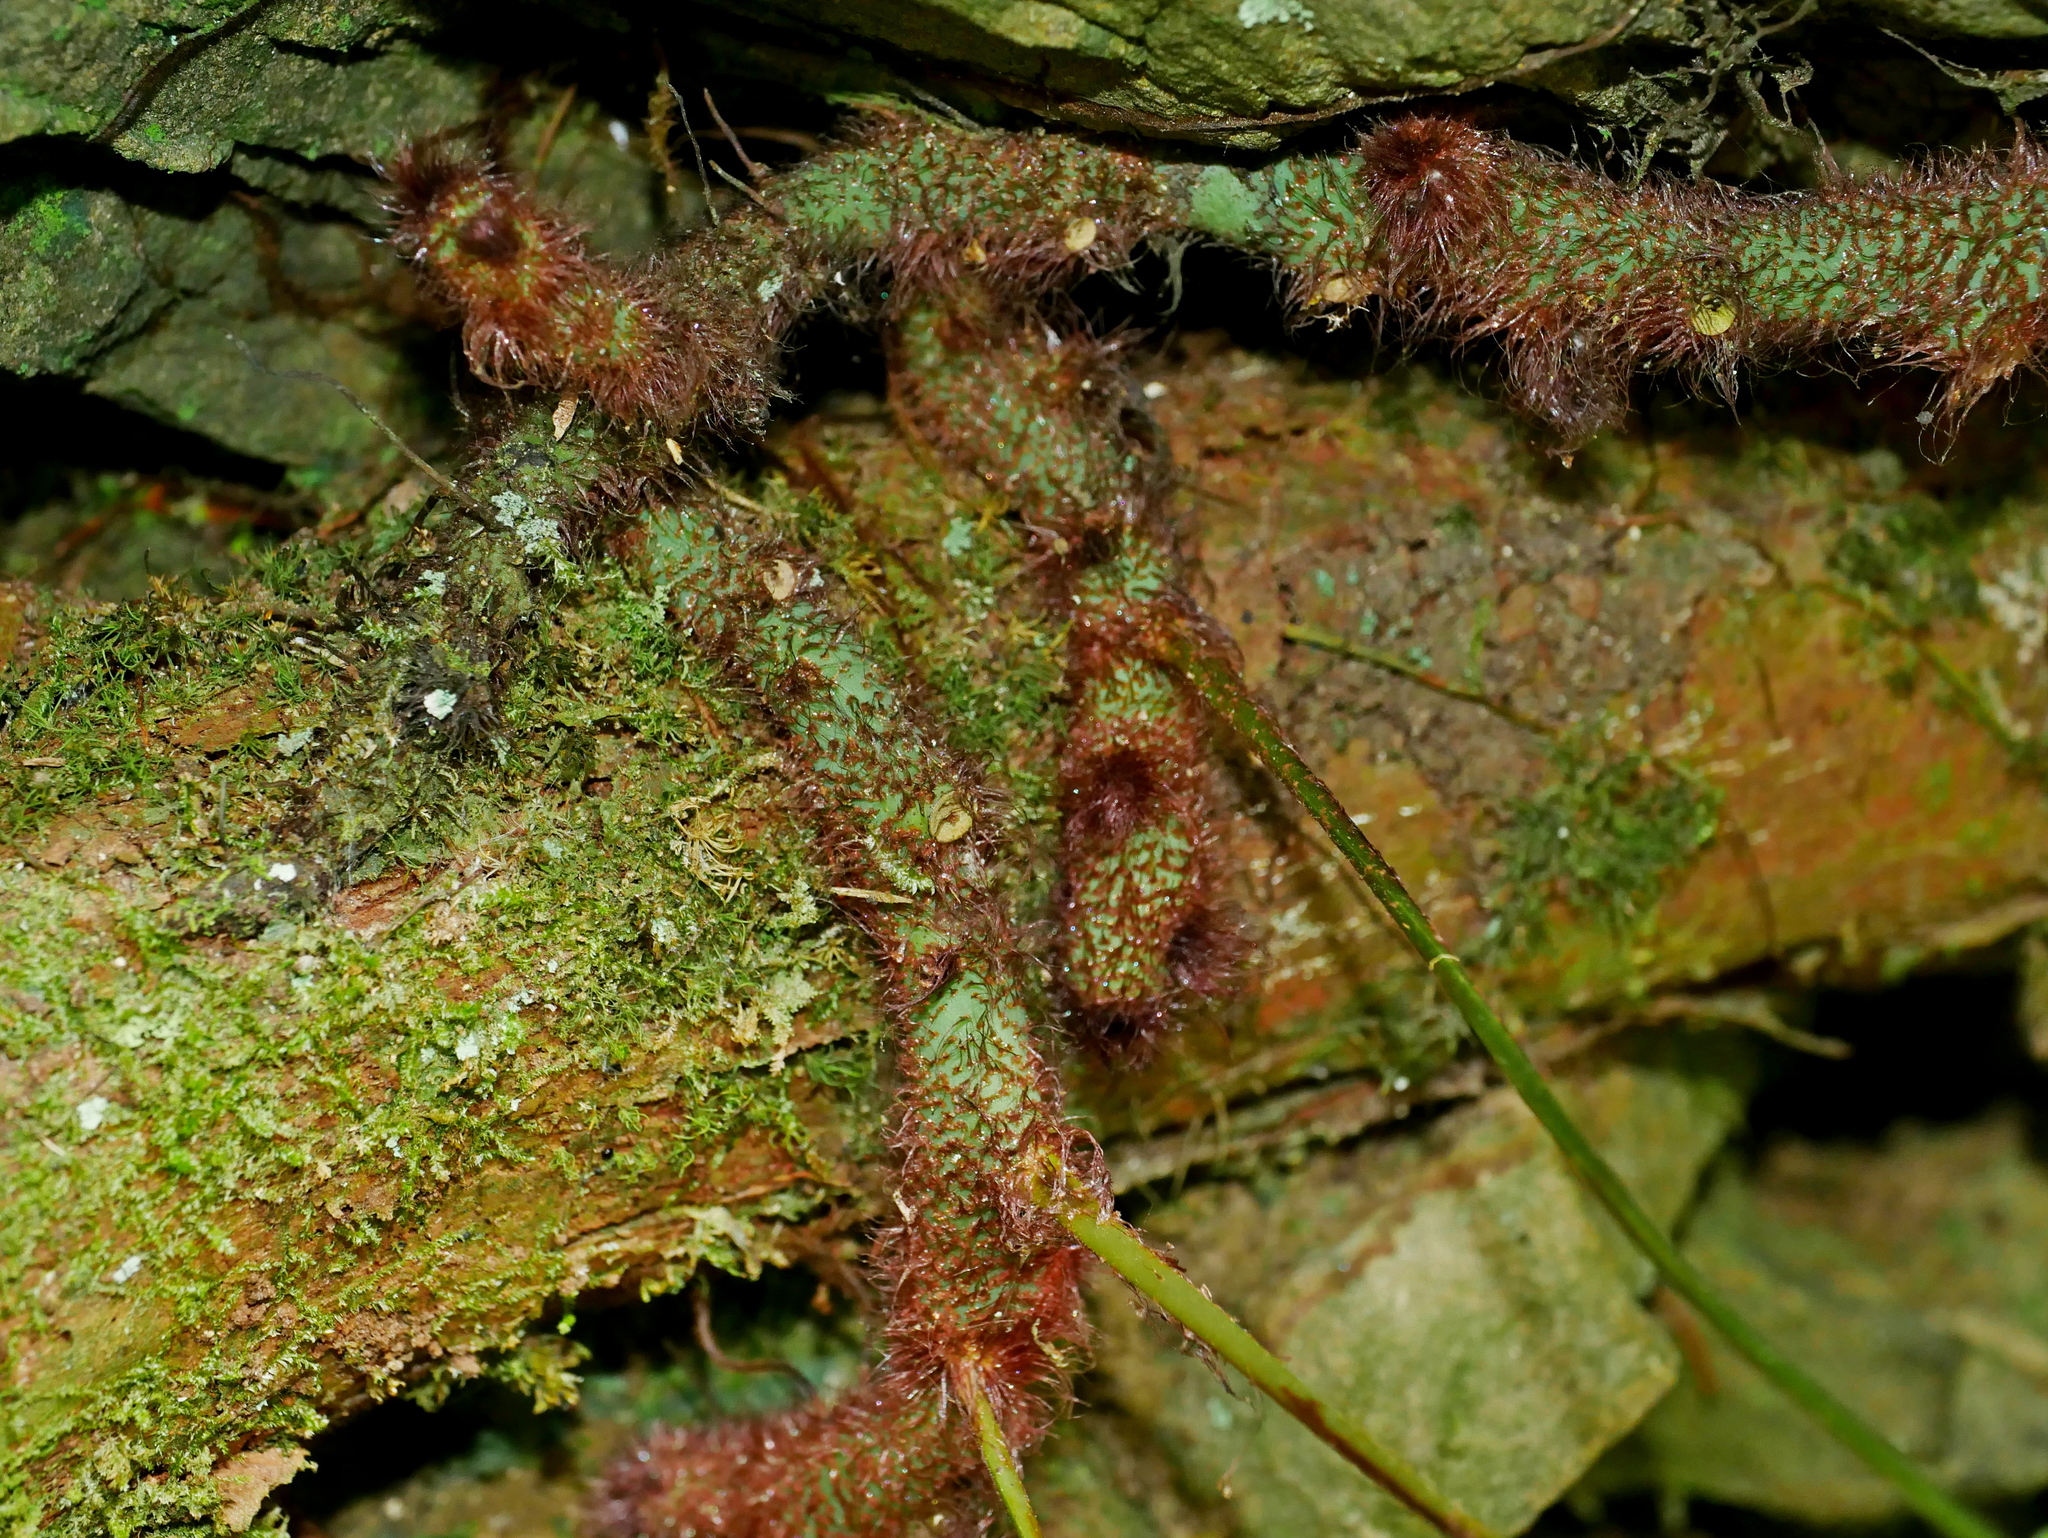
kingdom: Plantae
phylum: Tracheophyta
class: Polypodiopsida
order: Polypodiales
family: Polypodiaceae
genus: Goniophlebium
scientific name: Goniophlebium mengtzeense
